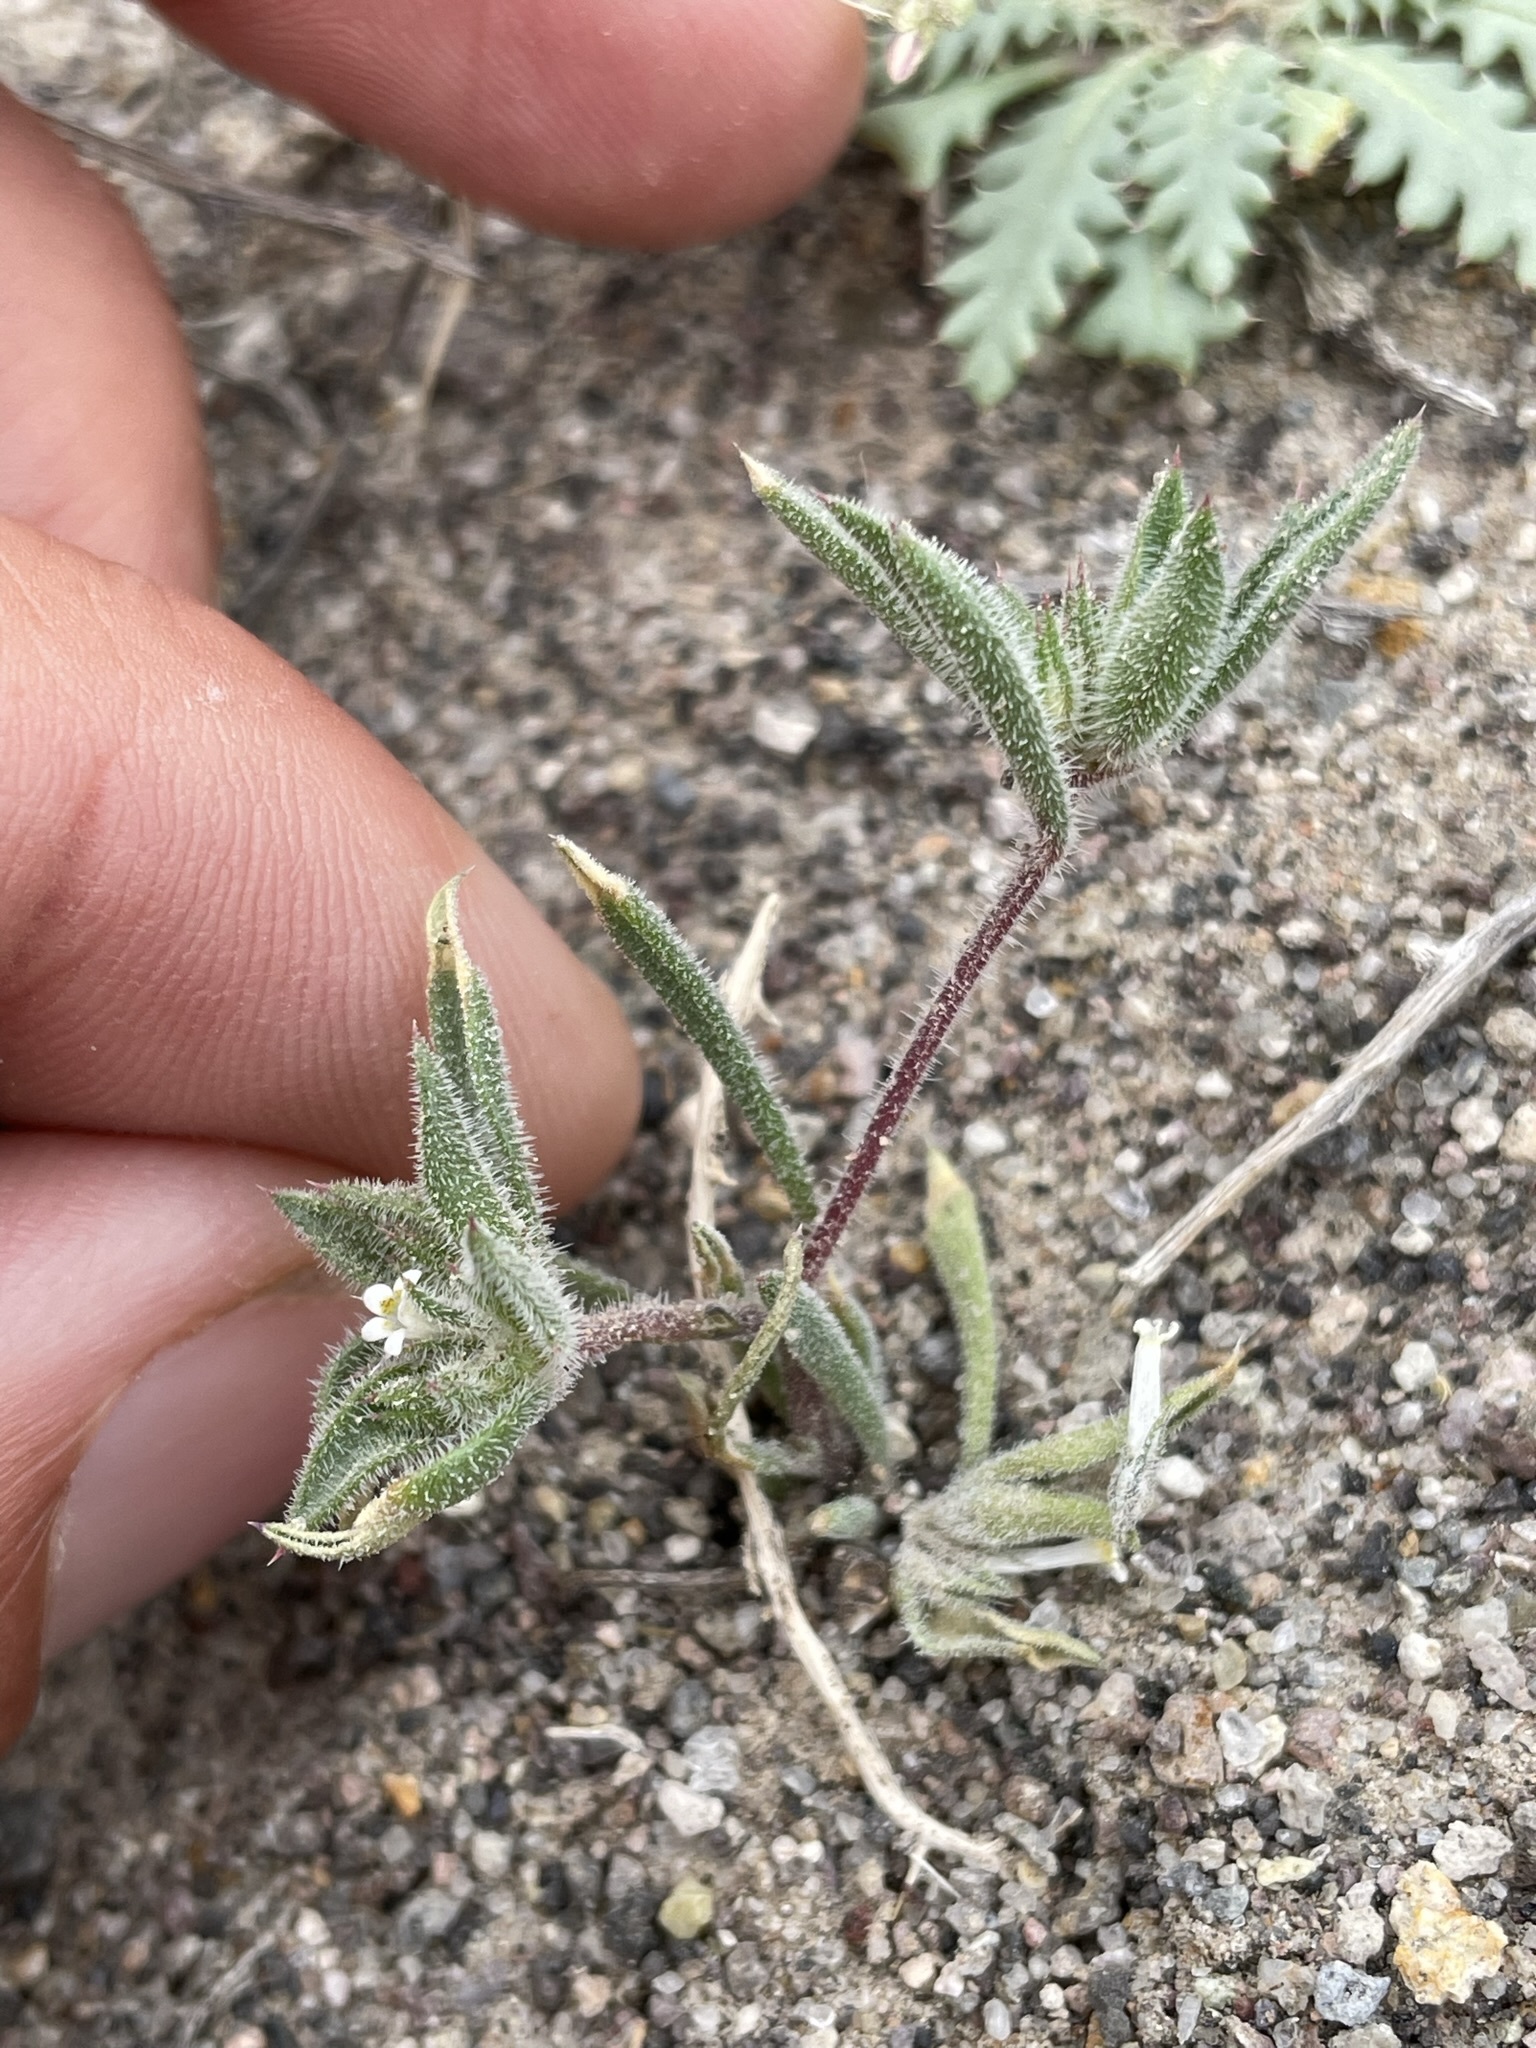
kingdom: Plantae
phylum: Tracheophyta
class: Magnoliopsida
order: Ericales
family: Polemoniaceae
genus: Loeseliastrum
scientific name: Loeseliastrum depressum
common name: Depressed ipomopsis
